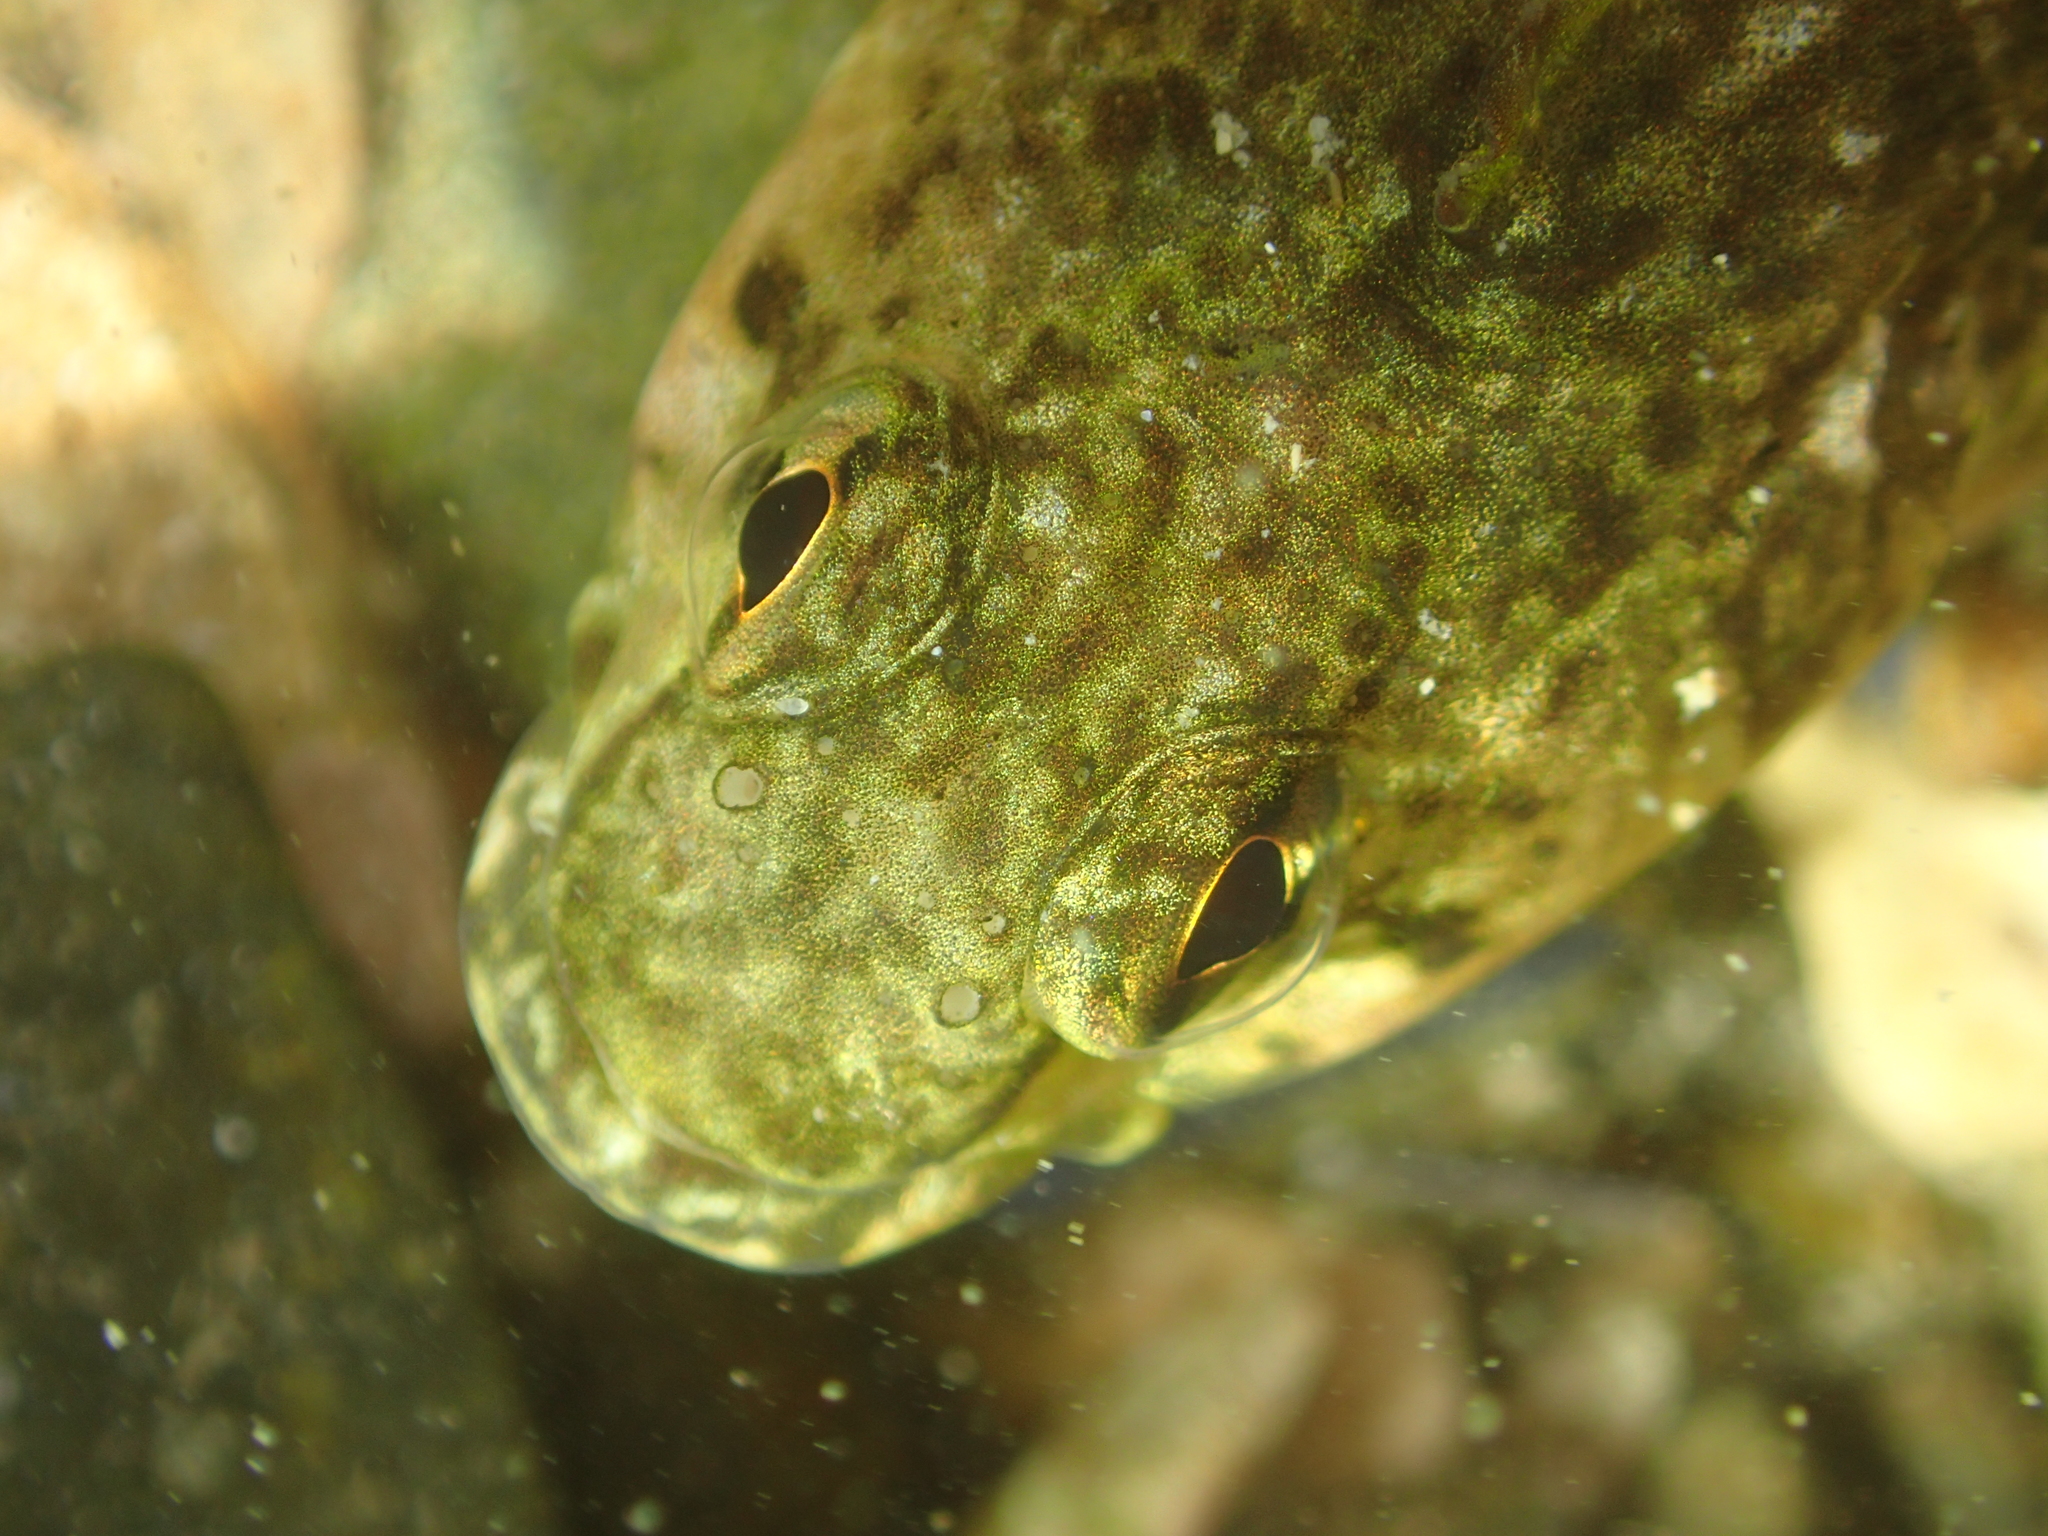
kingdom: Animalia
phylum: Chordata
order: Perciformes
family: Tripterygiidae
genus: Bellapiscis
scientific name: Bellapiscis medius
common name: Twister
